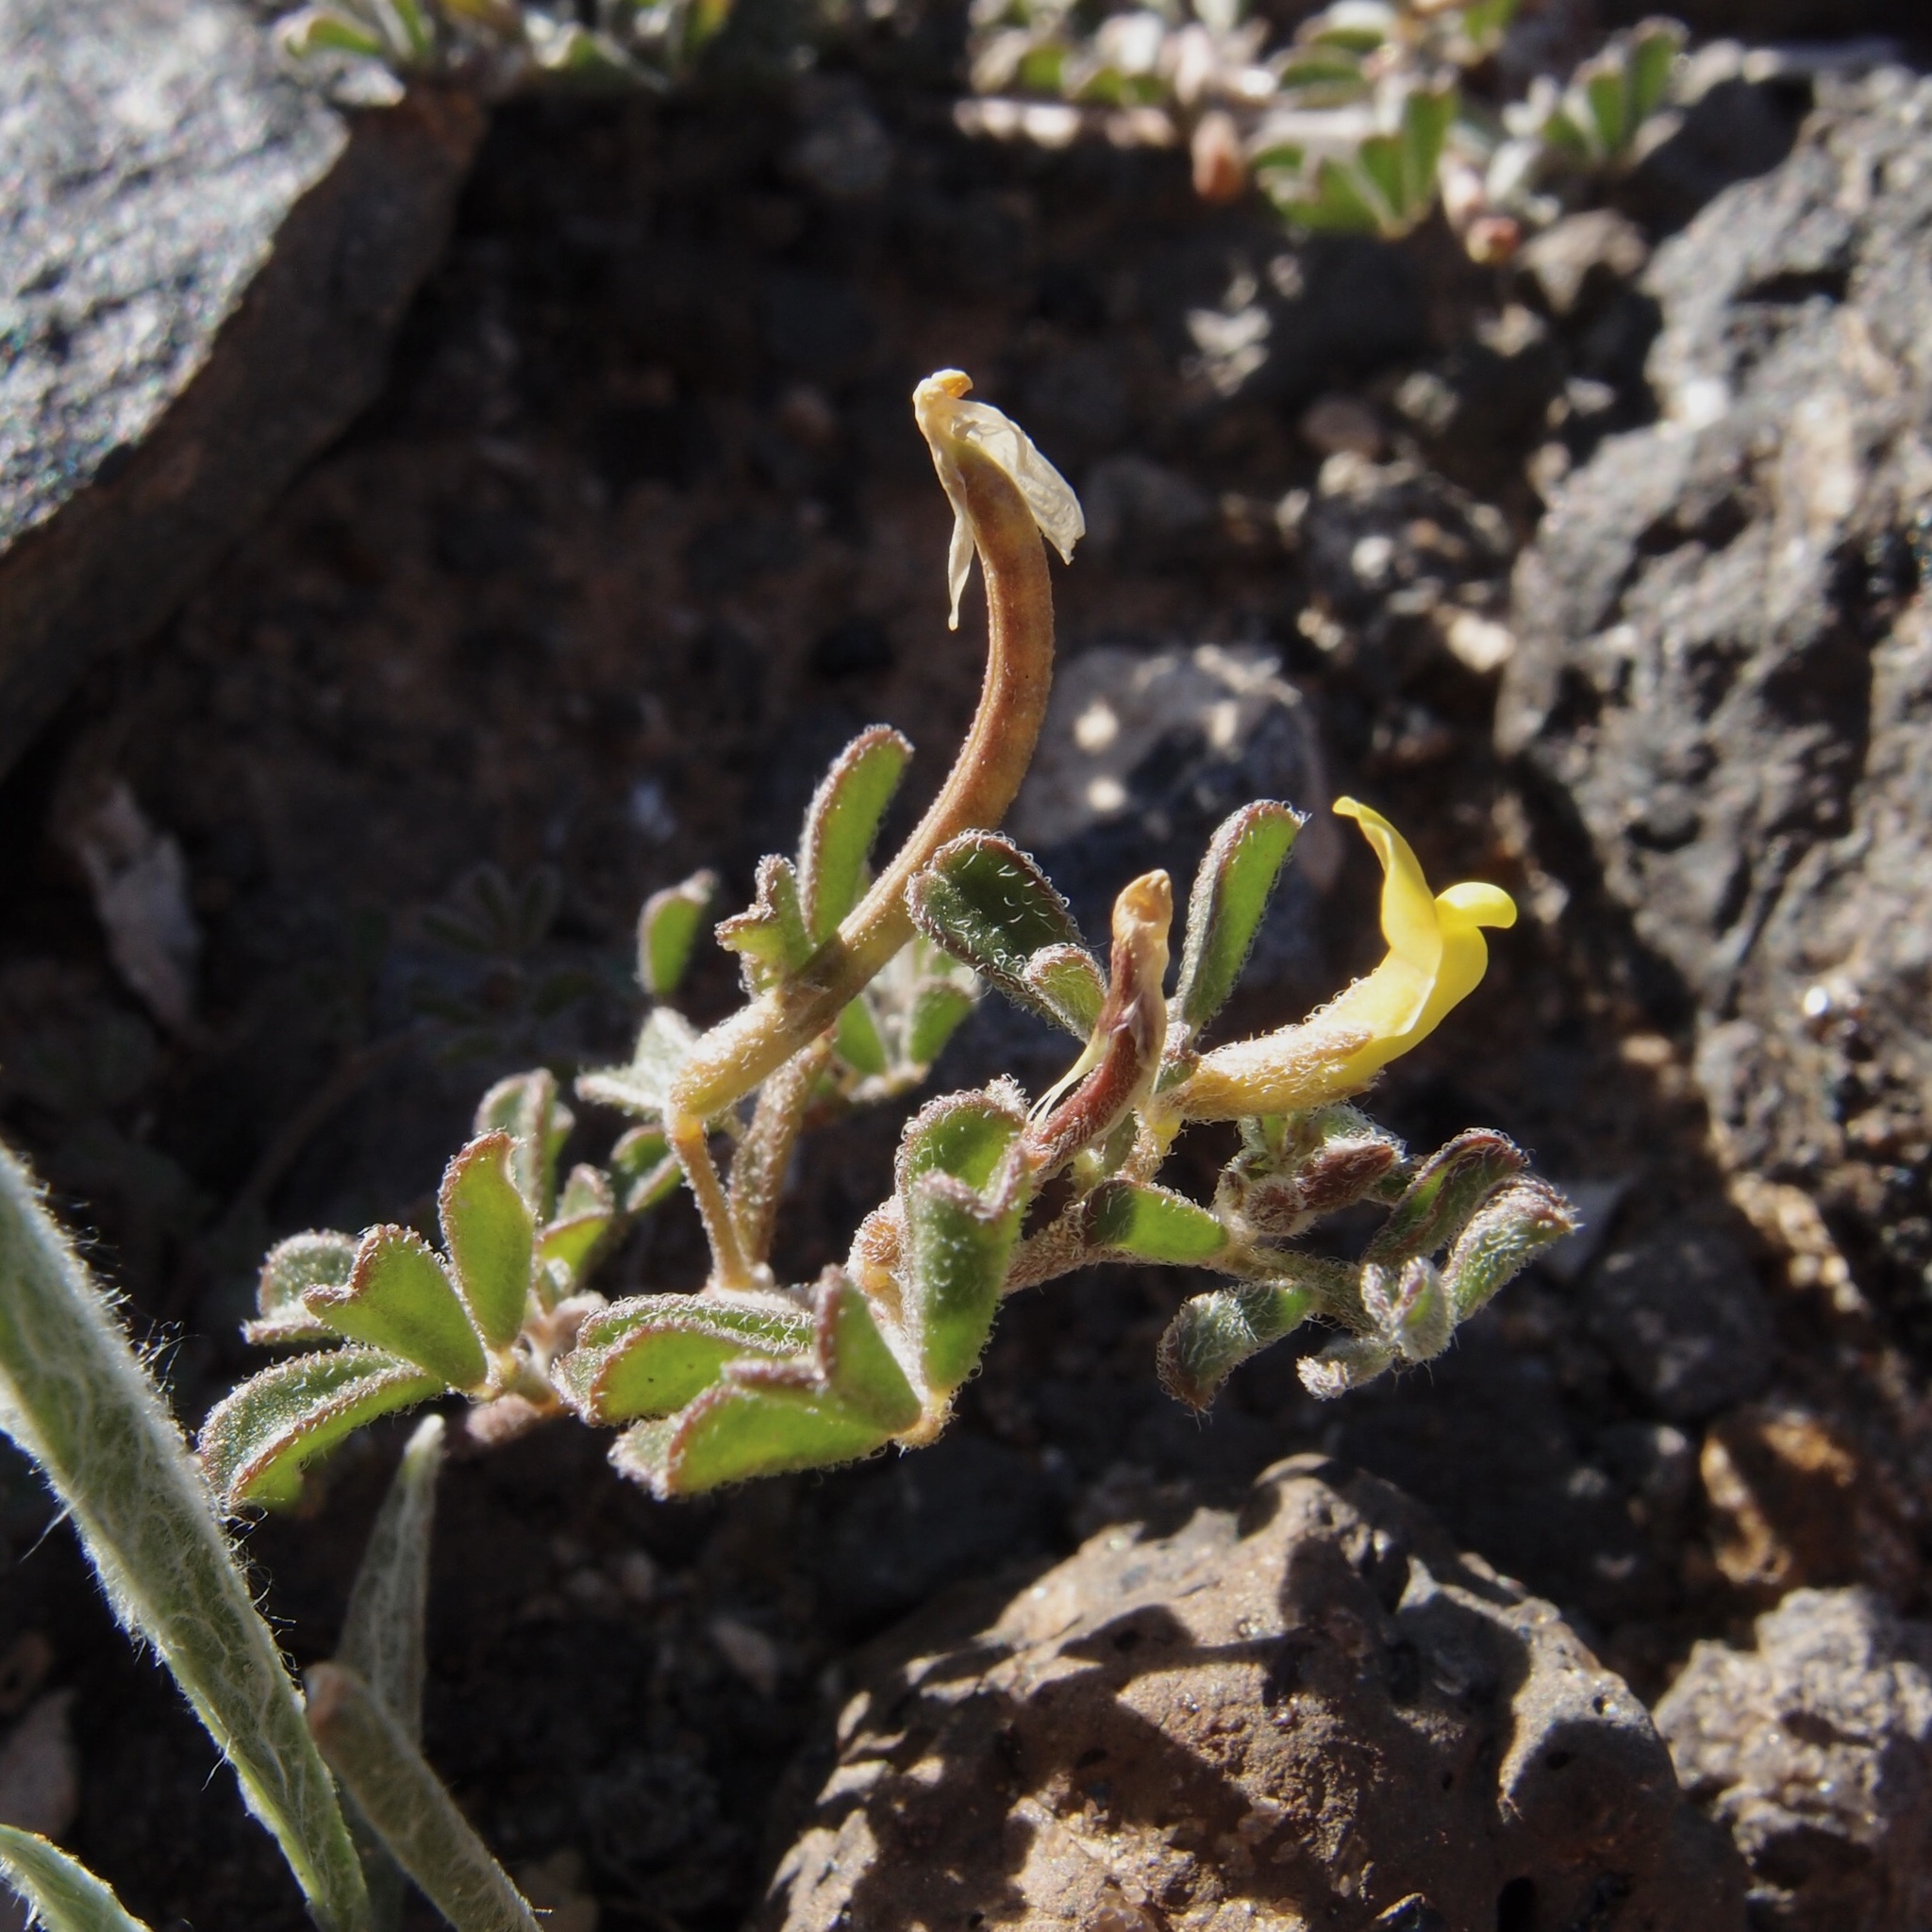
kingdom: Plantae
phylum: Tracheophyta
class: Magnoliopsida
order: Fabales
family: Fabaceae
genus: Acmispon
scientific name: Acmispon strigosus
